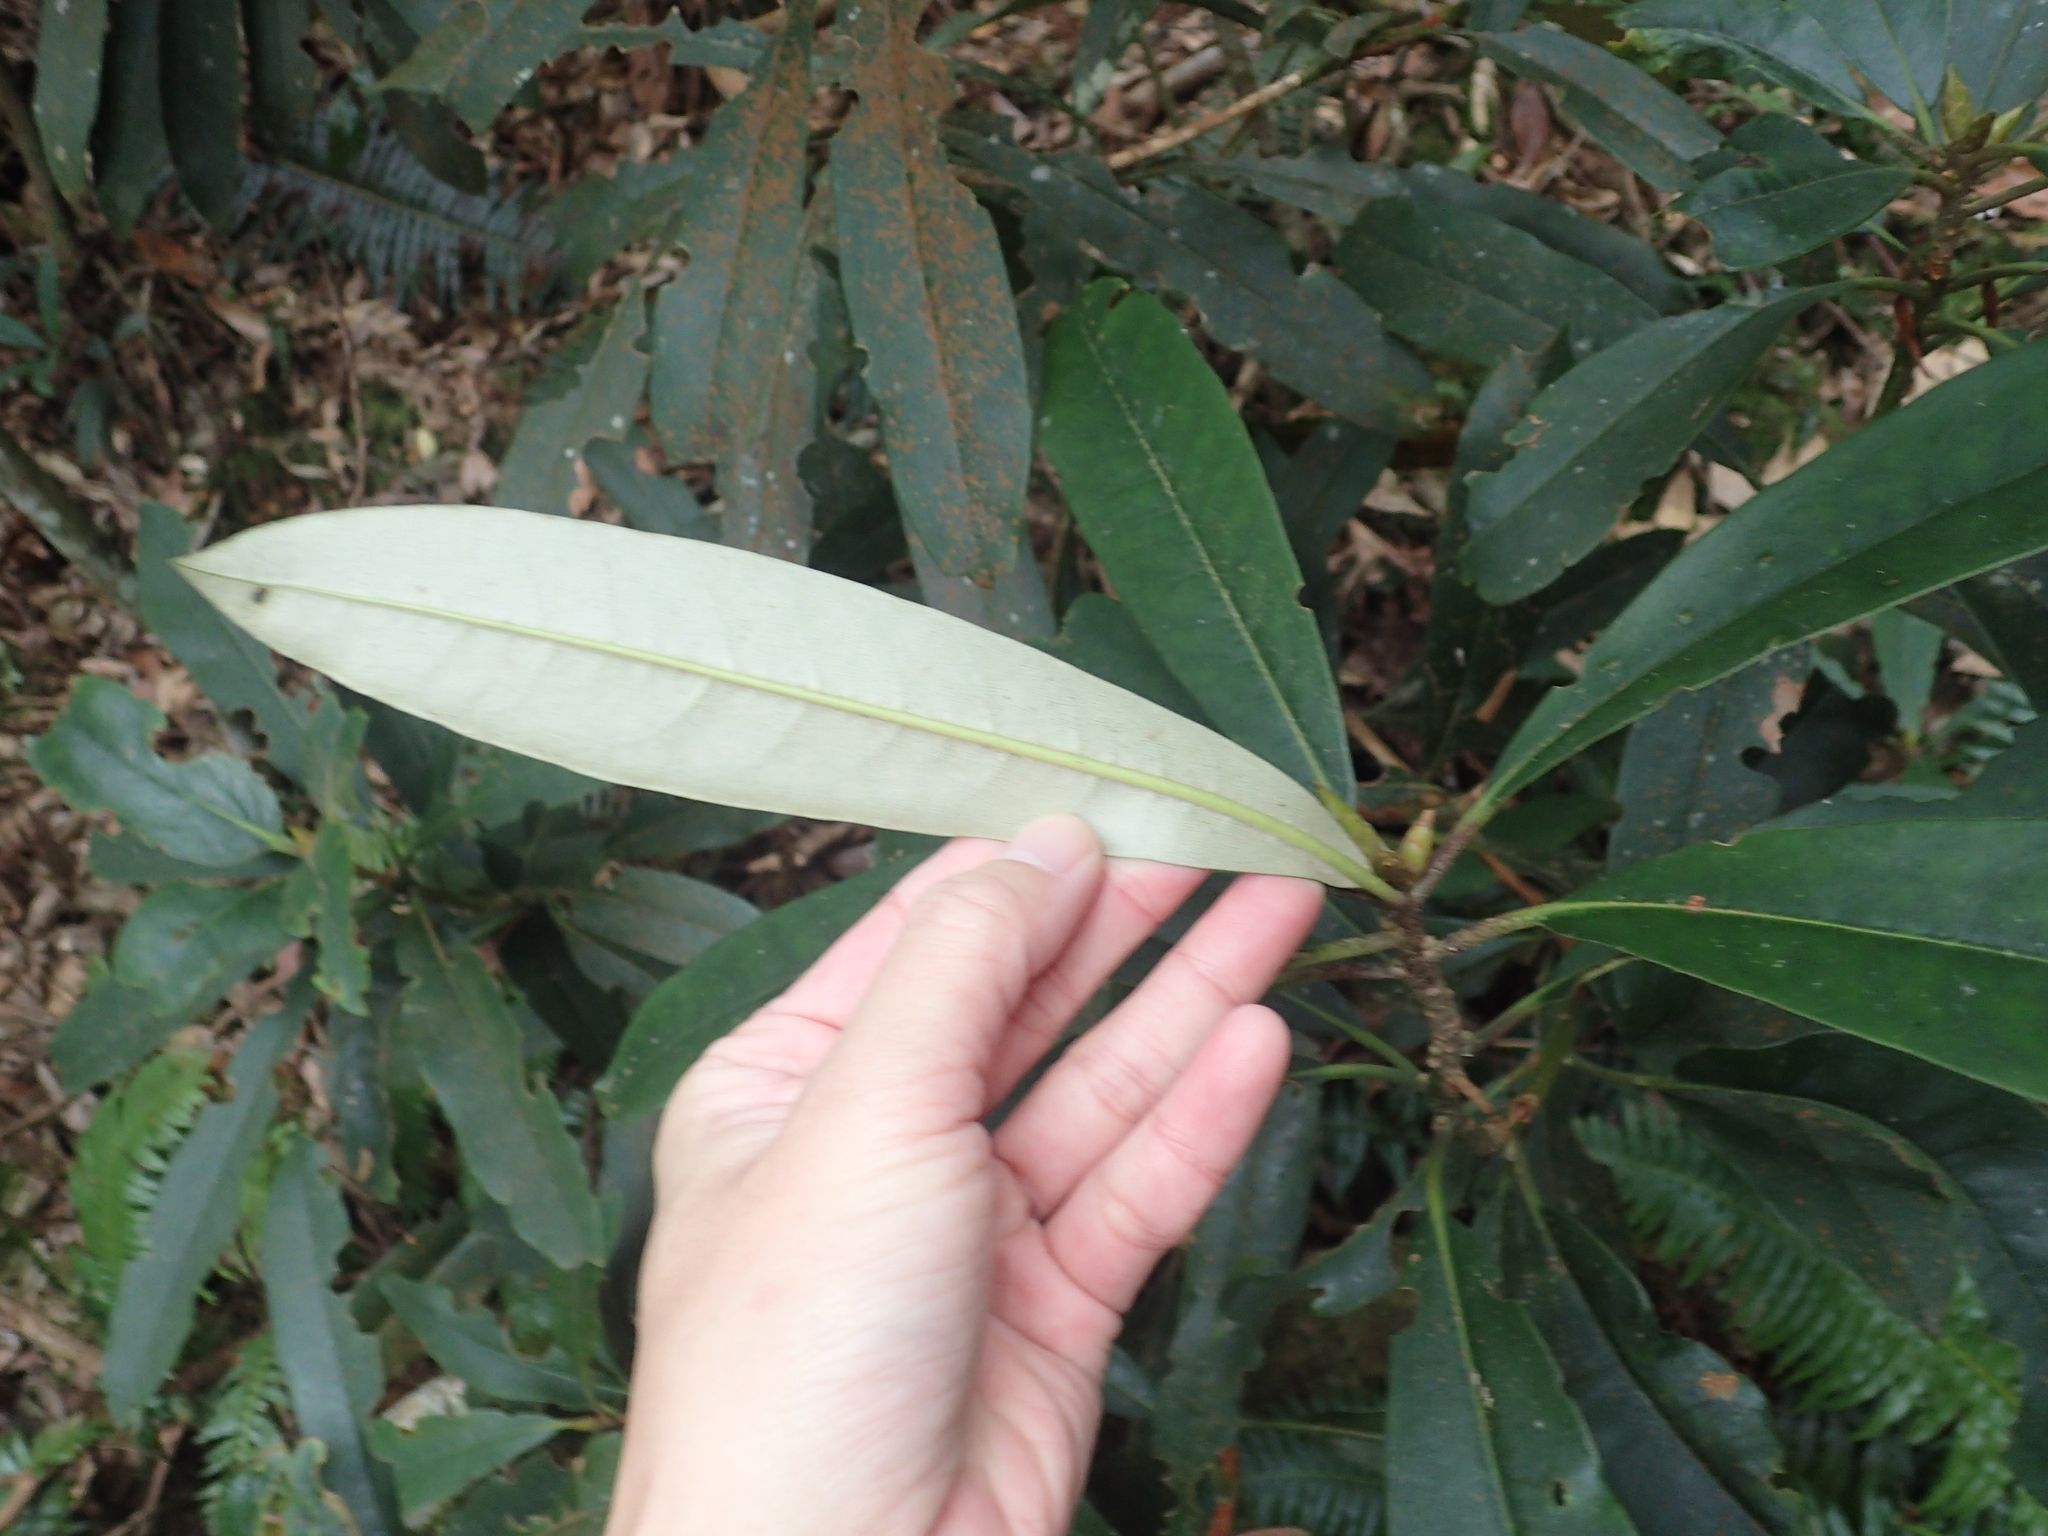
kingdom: Plantae
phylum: Tracheophyta
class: Magnoliopsida
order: Ericales
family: Ericaceae
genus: Rhododendron
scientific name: Rhododendron formosanum
